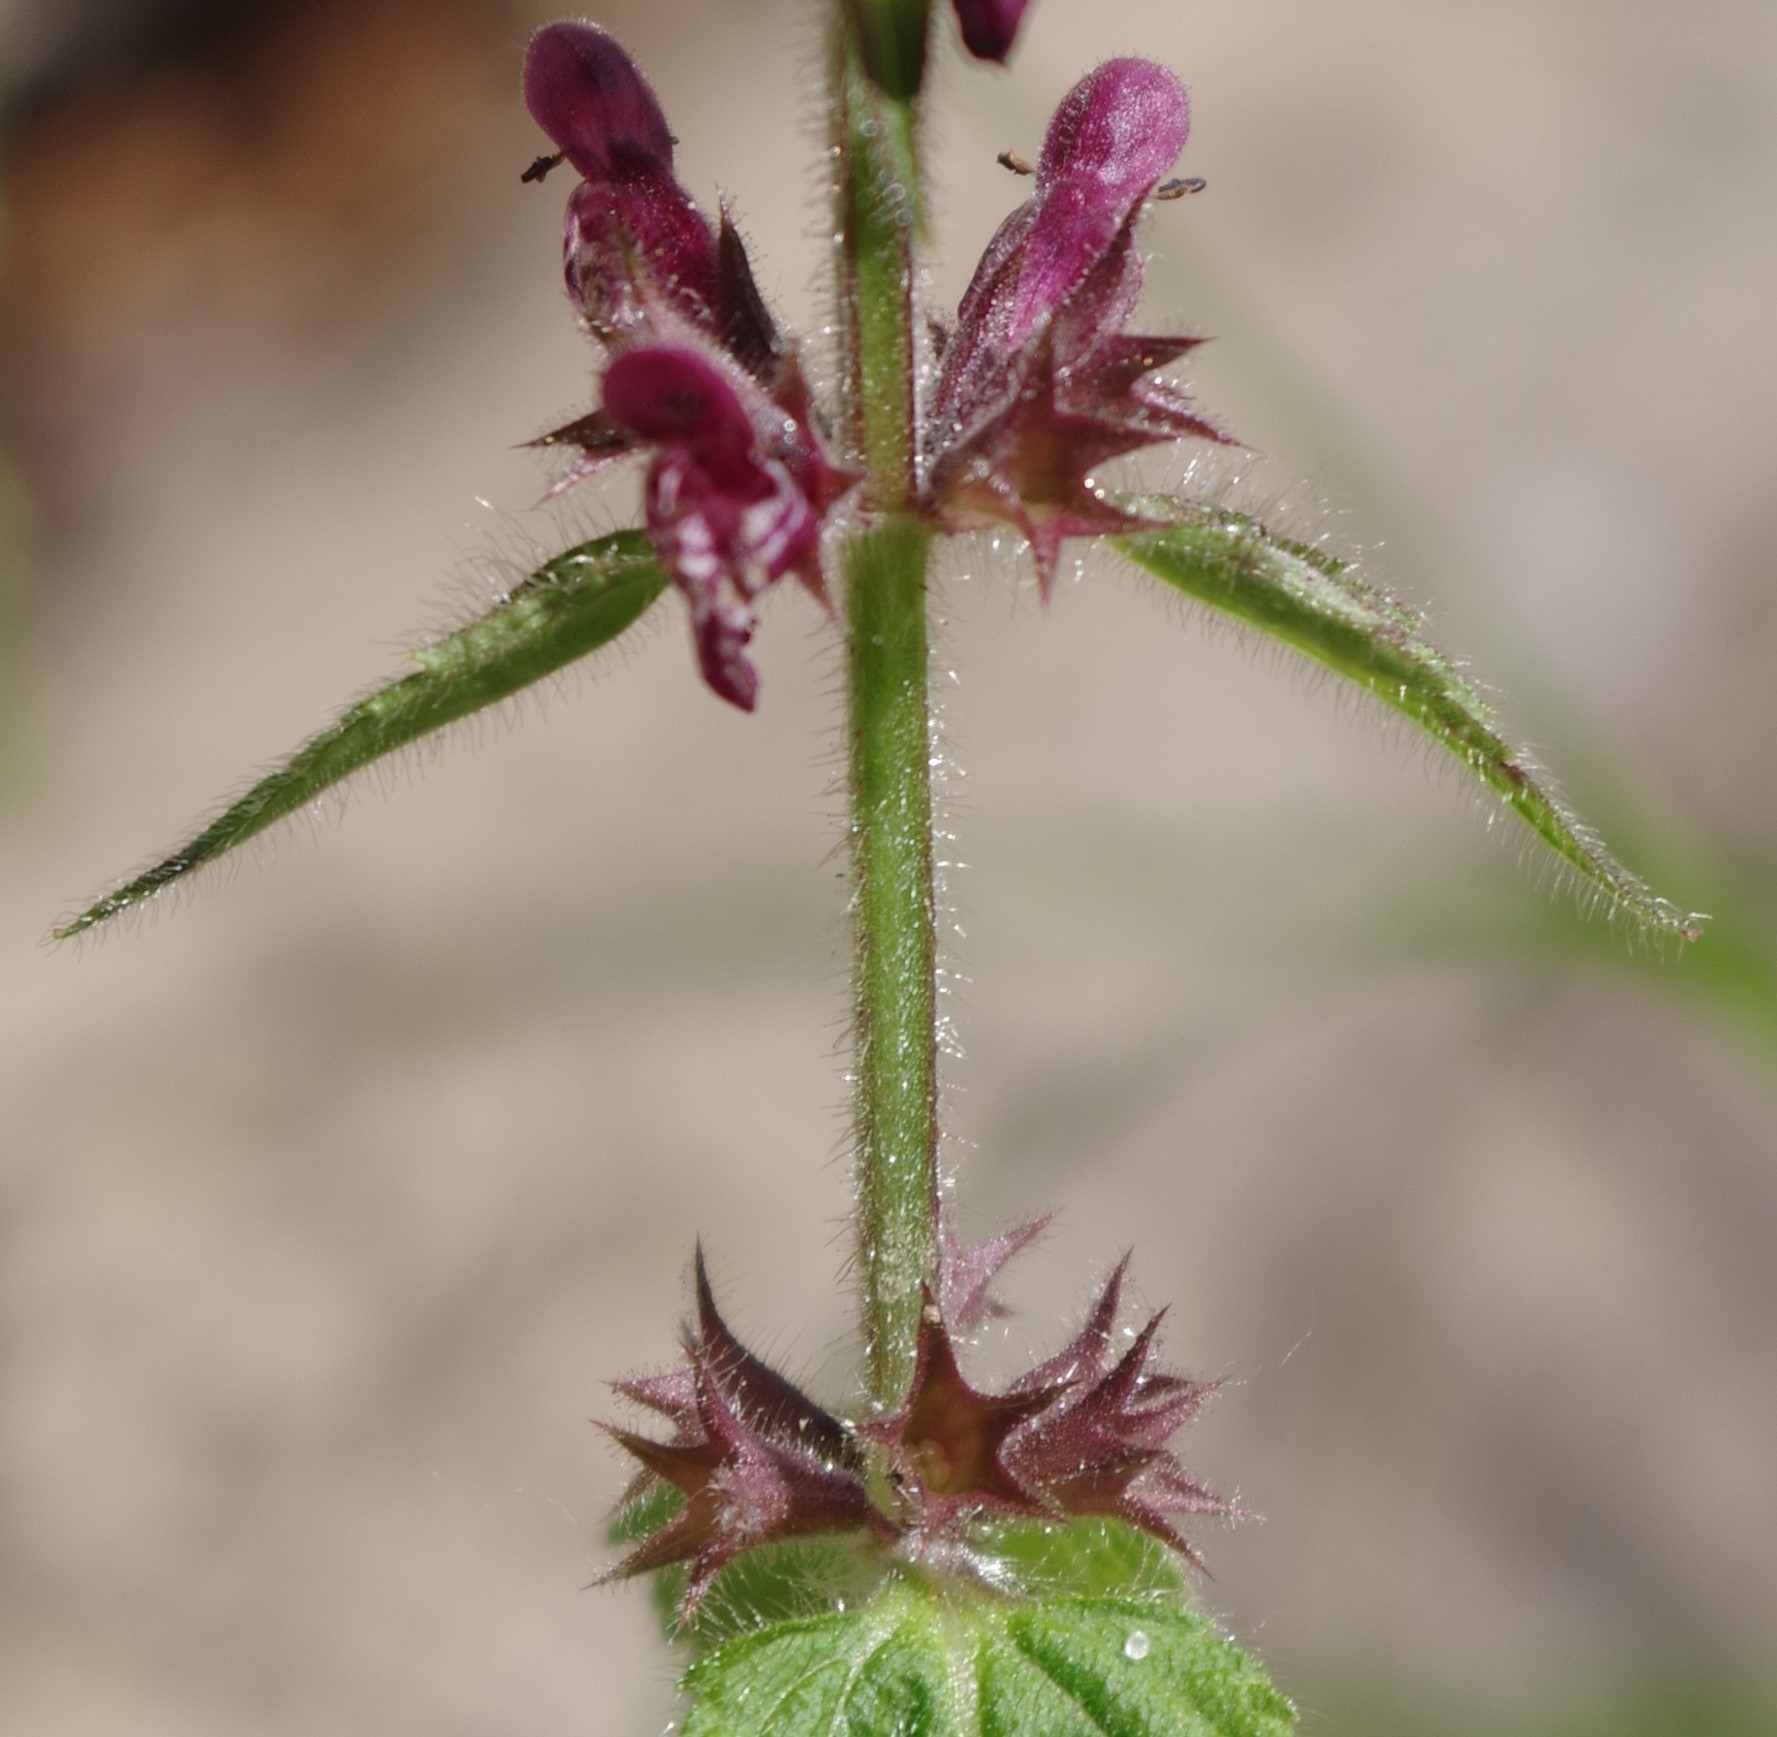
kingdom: Plantae
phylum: Tracheophyta
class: Magnoliopsida
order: Lamiales
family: Lamiaceae
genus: Stachys
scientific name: Stachys sylvatica
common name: Hedge woundwort
